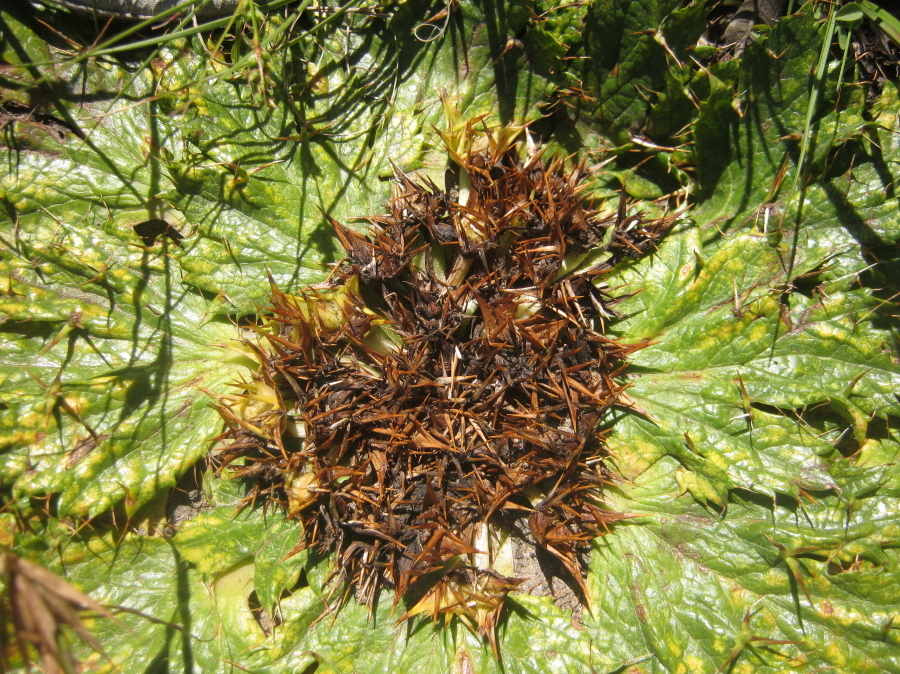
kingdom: Plantae
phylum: Tracheophyta
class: Magnoliopsida
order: Apiales
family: Apiaceae
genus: Arctopus
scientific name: Arctopus echinatus
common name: Platdoring
